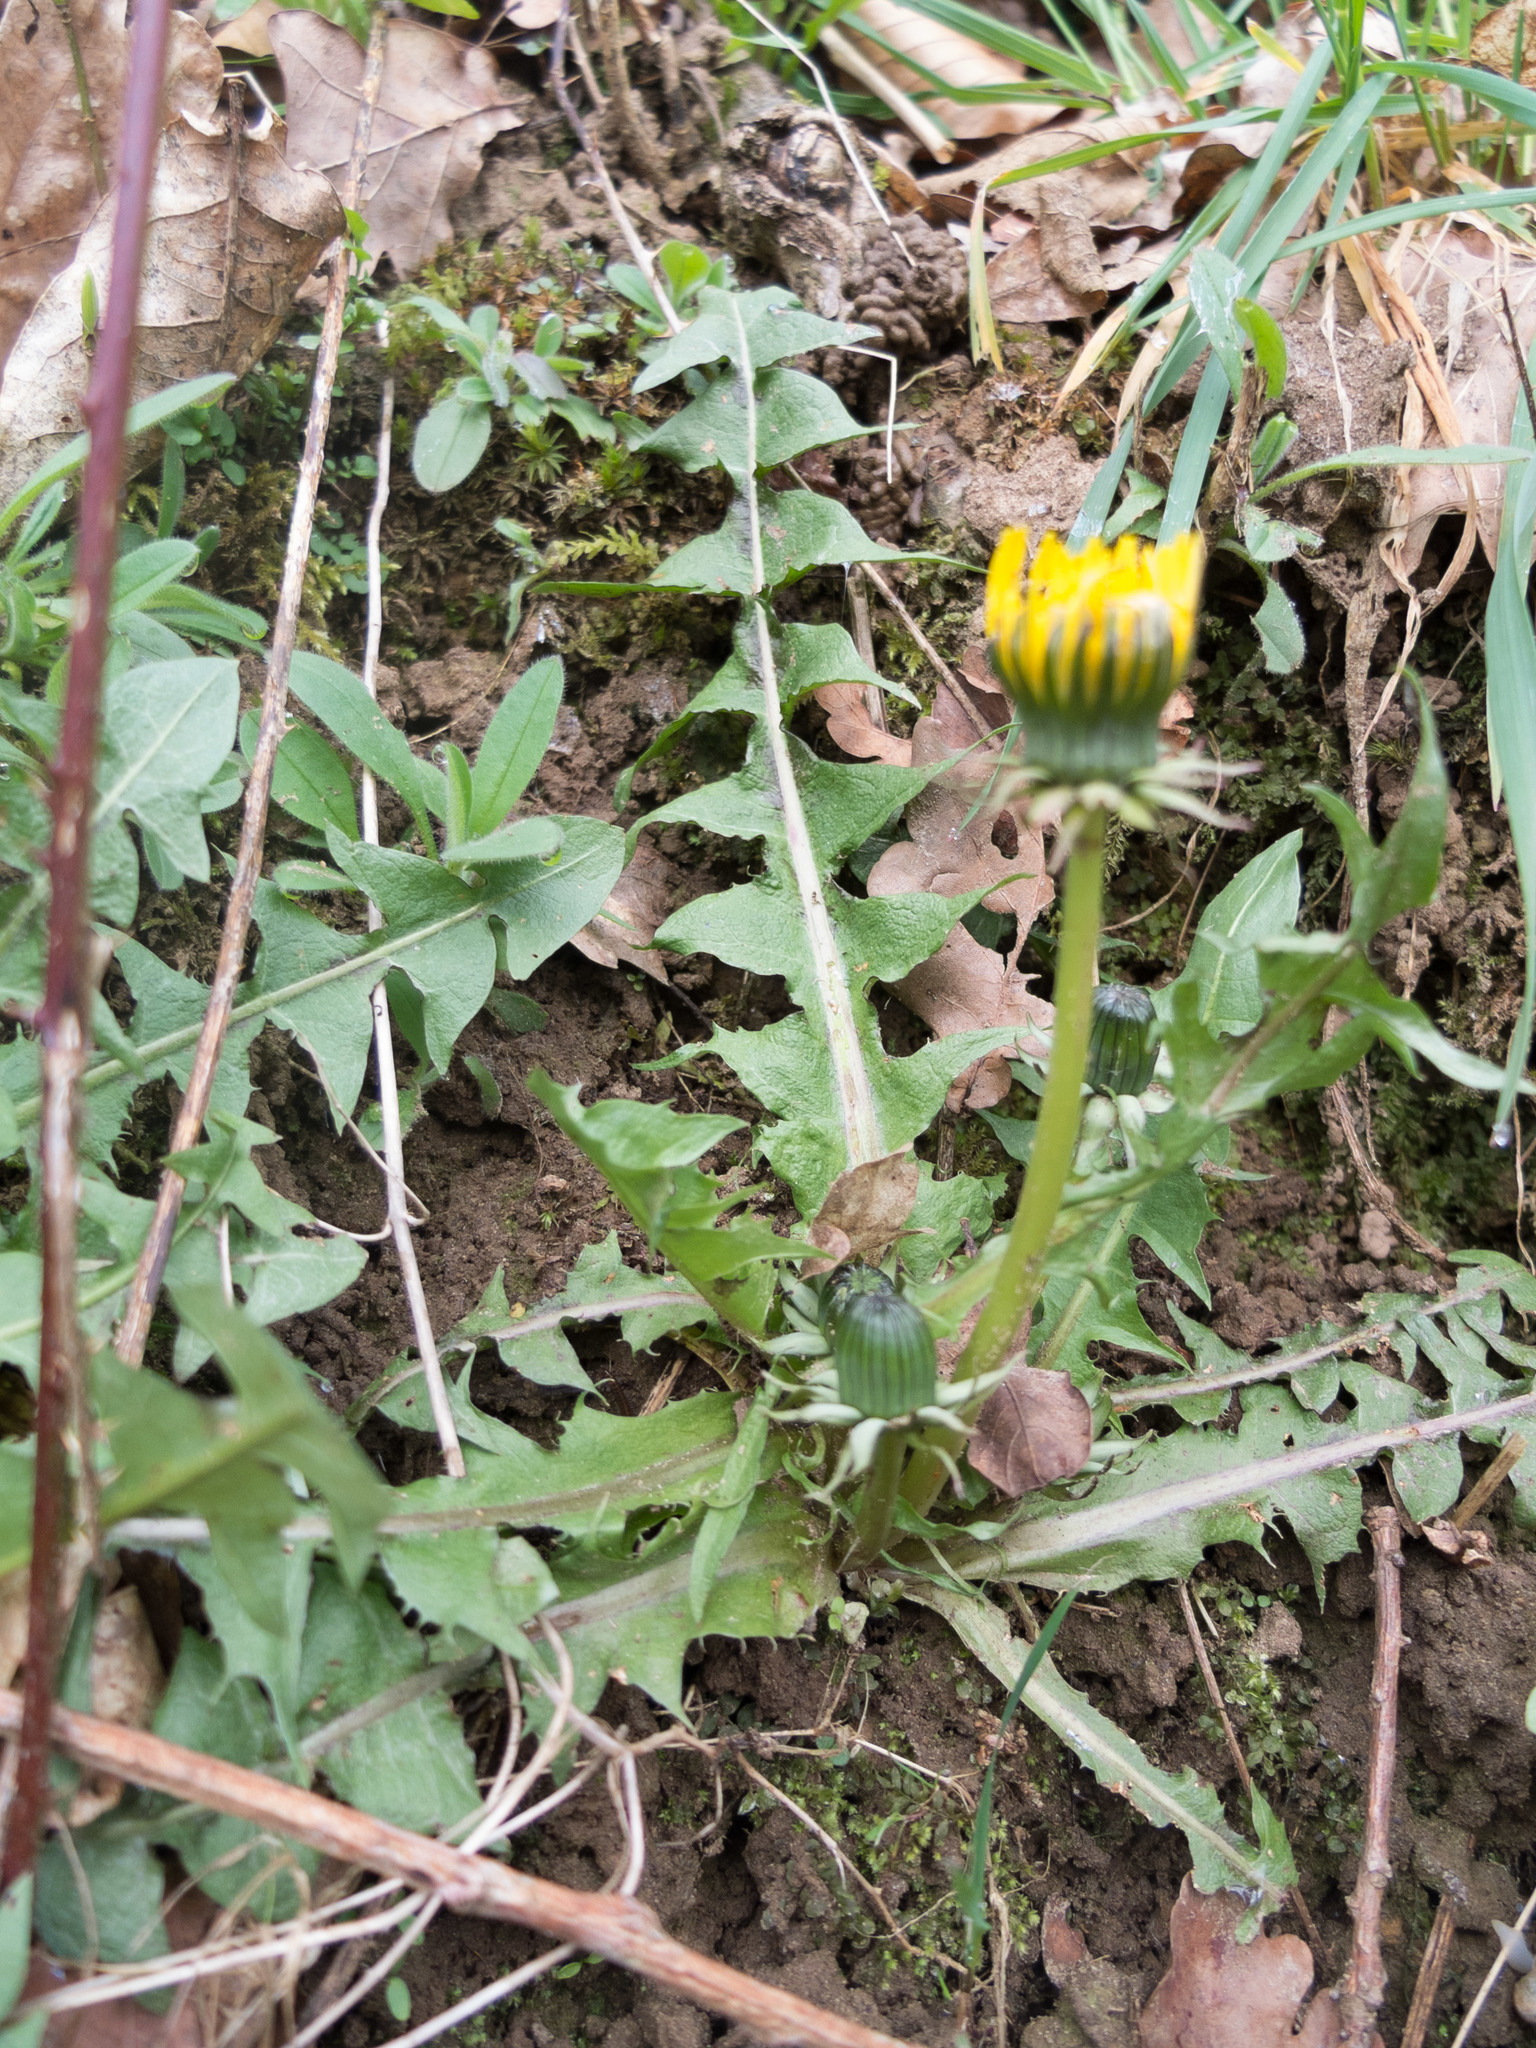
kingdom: Plantae
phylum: Tracheophyta
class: Magnoliopsida
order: Asterales
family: Asteraceae
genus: Taraxacum
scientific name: Taraxacum officinale
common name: Common dandelion
